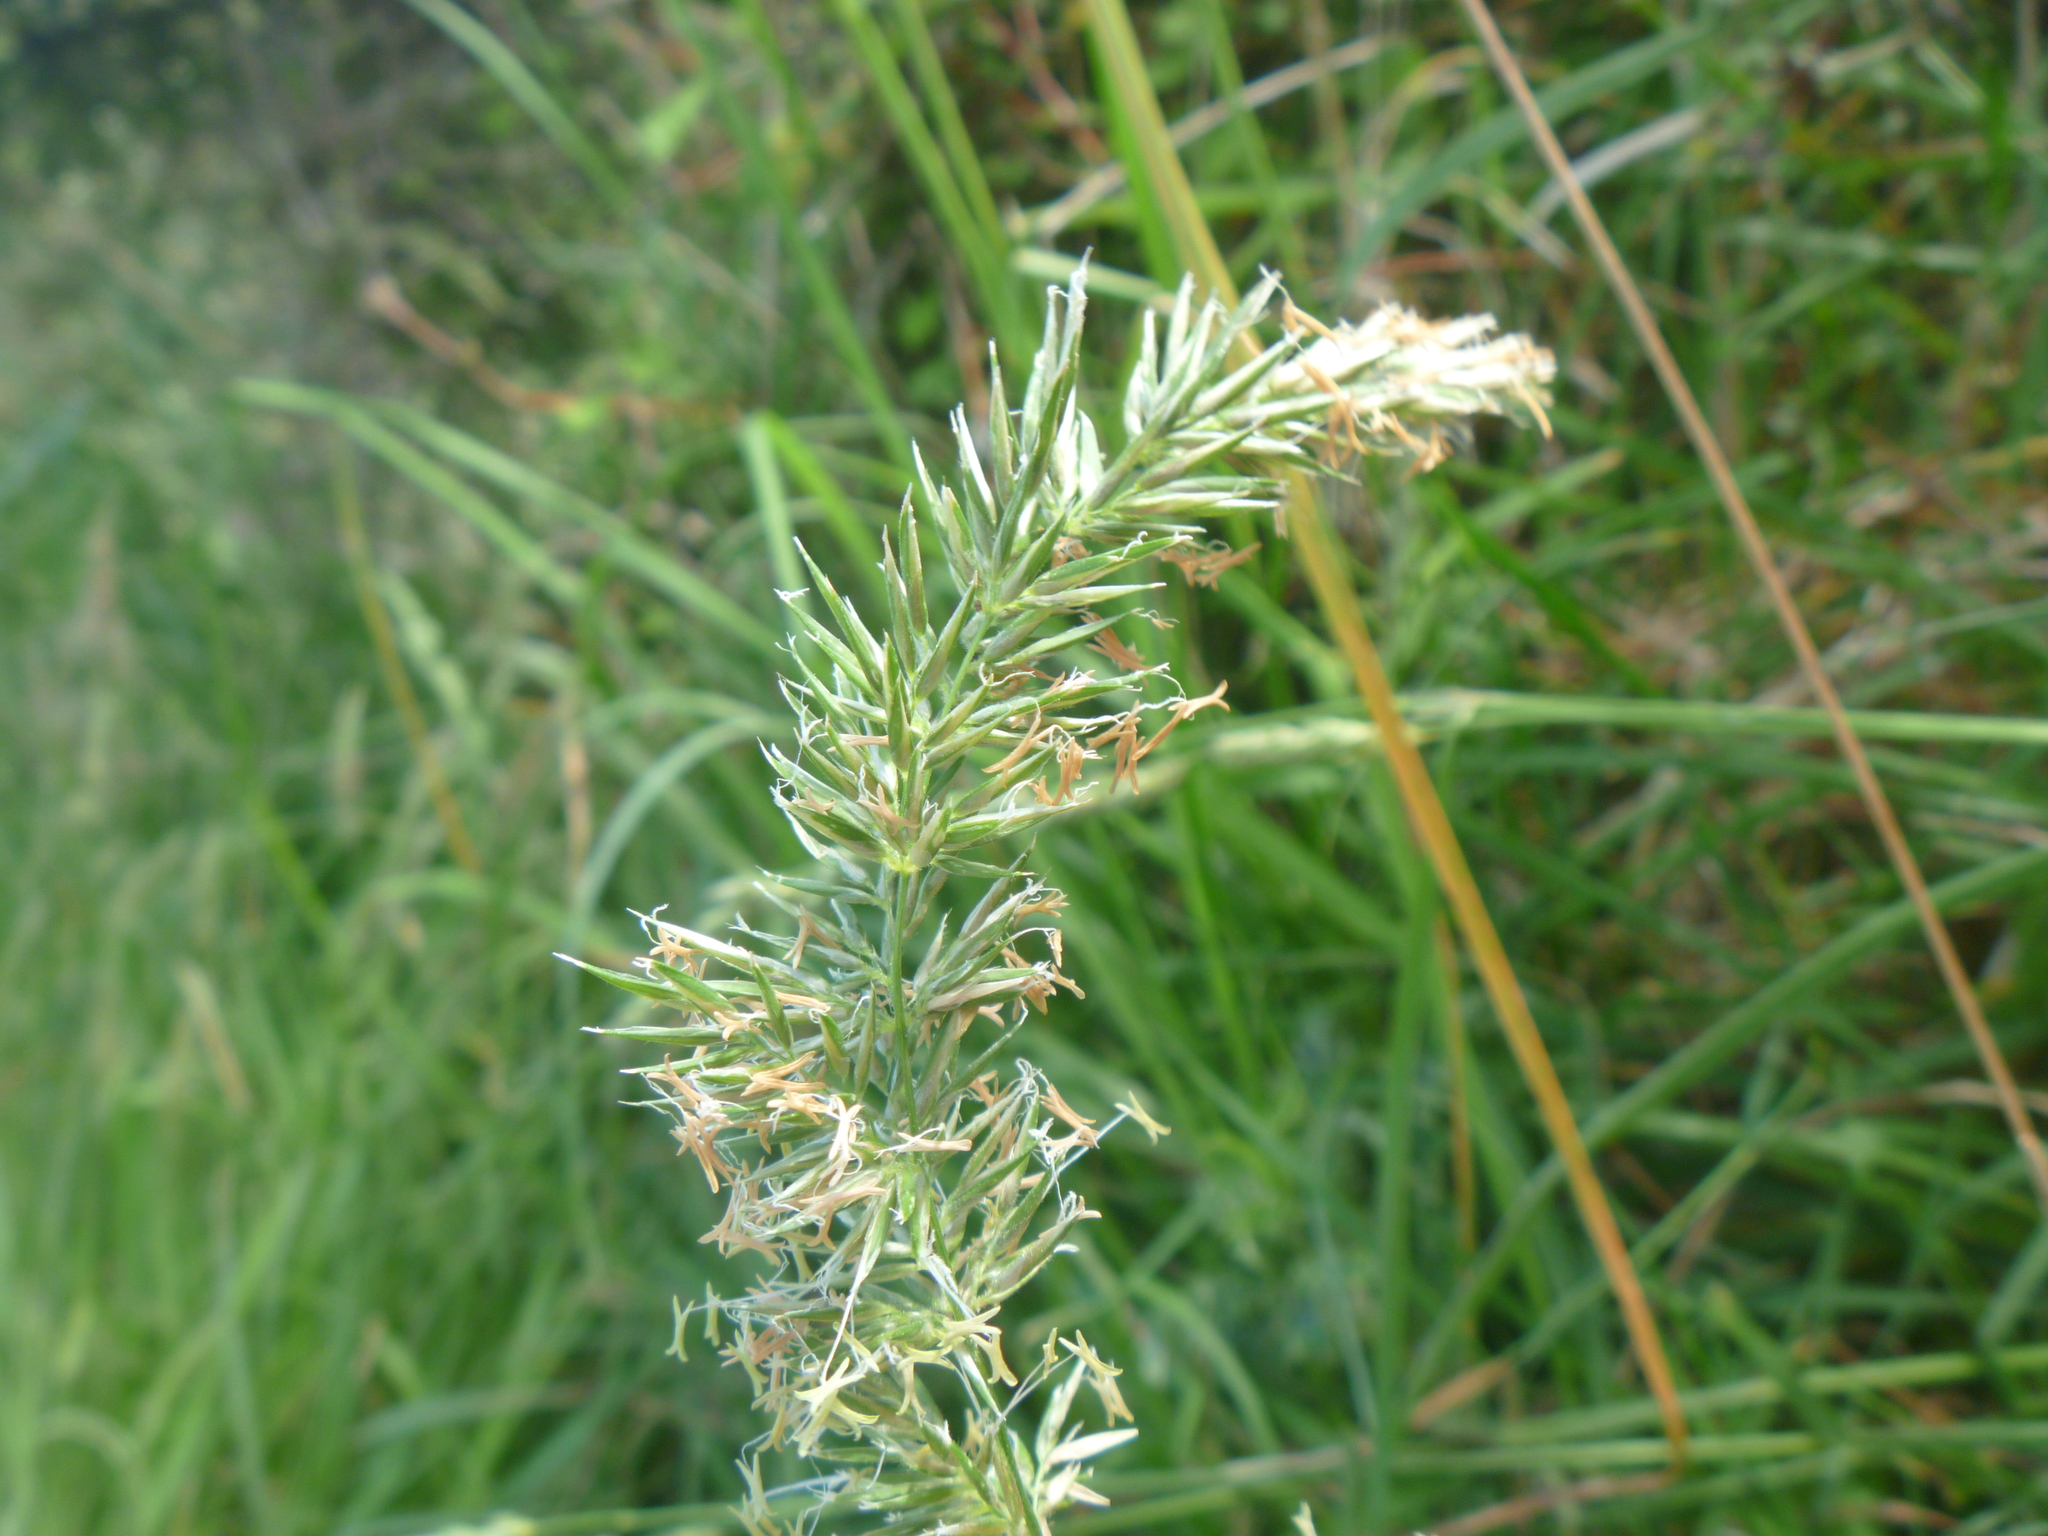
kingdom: Plantae
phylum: Tracheophyta
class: Liliopsida
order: Poales
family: Poaceae
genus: Anthoxanthum
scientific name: Anthoxanthum odoratum
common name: Sweet vernalgrass
